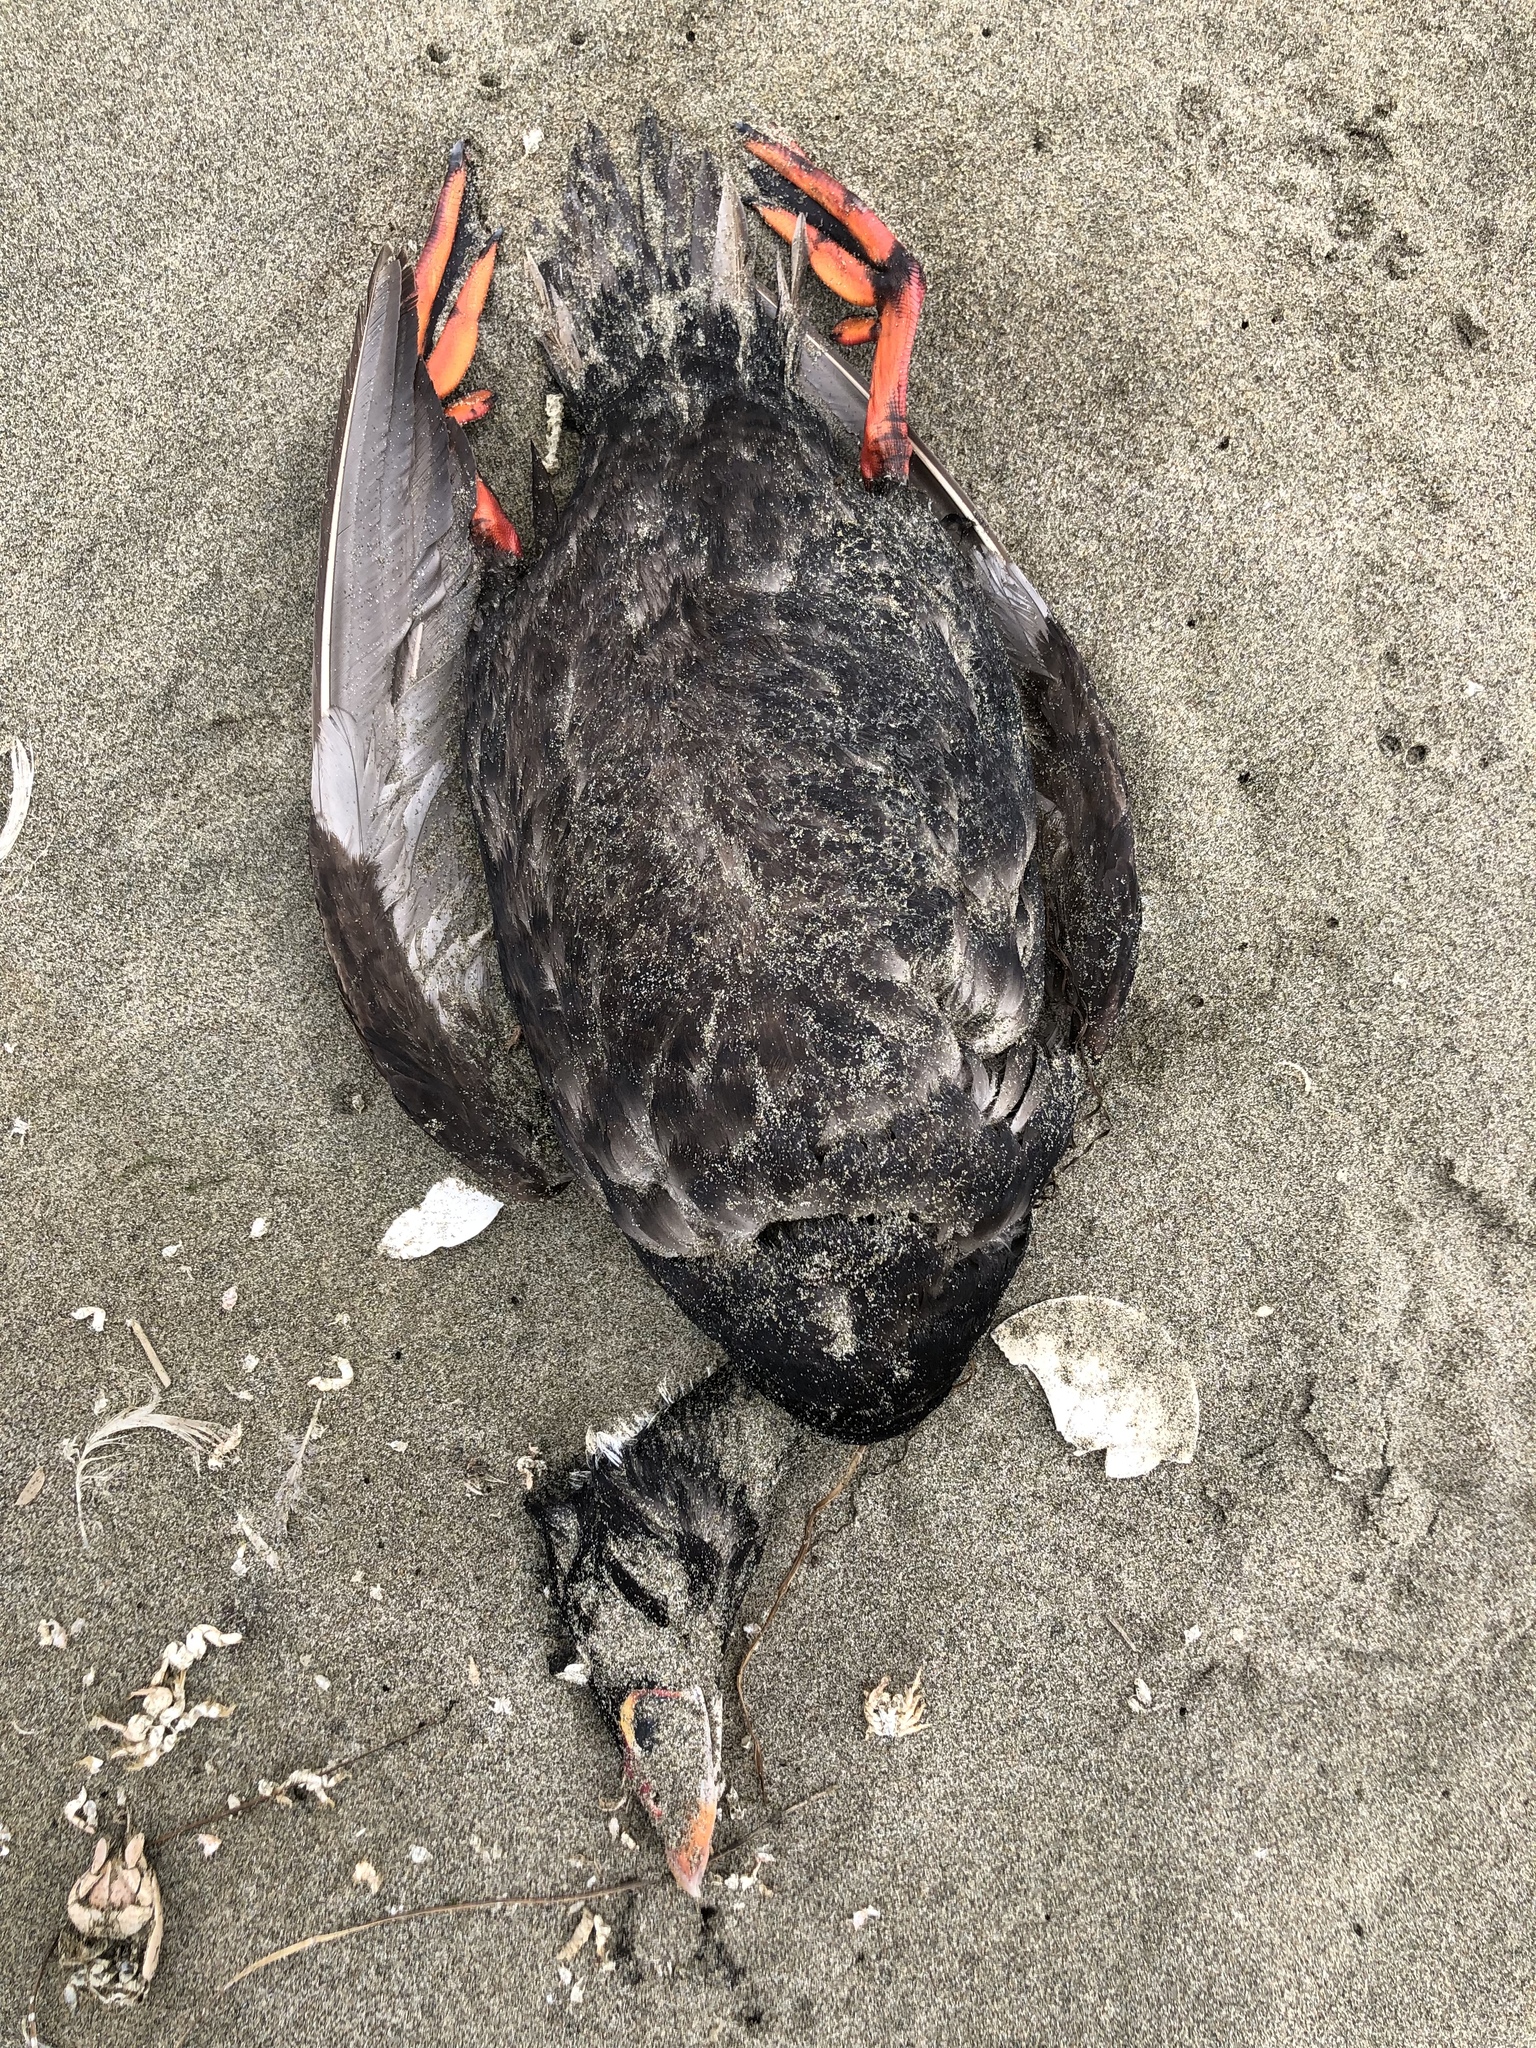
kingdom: Animalia
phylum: Chordata
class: Aves
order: Anseriformes
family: Anatidae
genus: Melanitta
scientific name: Melanitta perspicillata
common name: Surf scoter
